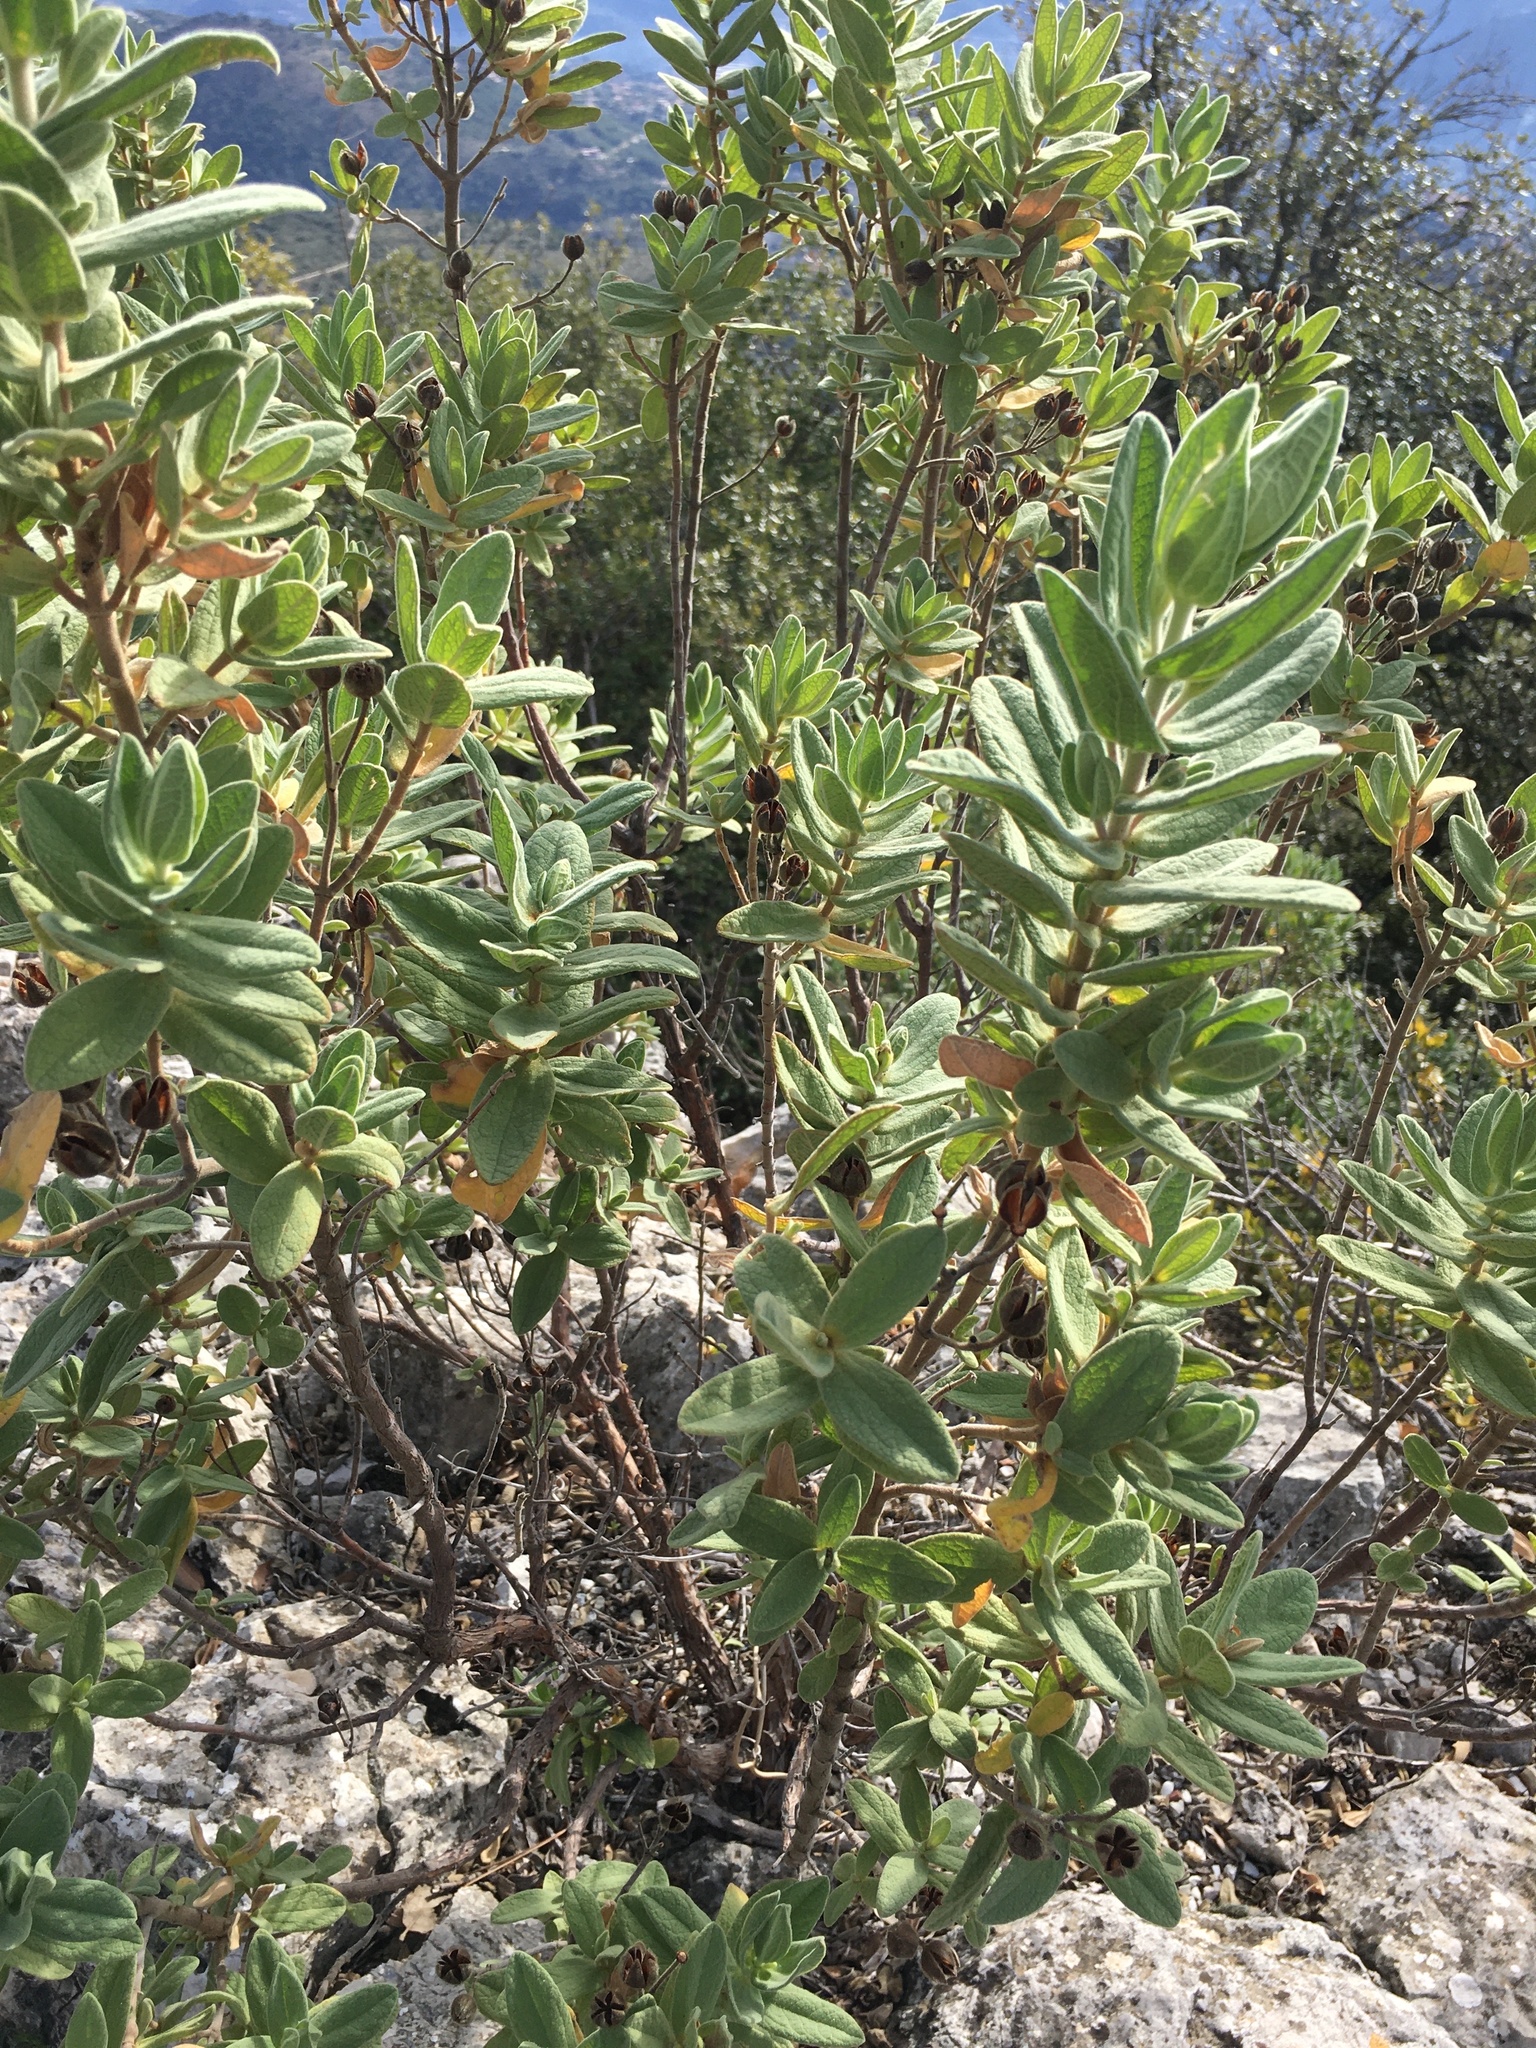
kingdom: Plantae
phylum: Tracheophyta
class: Magnoliopsida
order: Malvales
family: Cistaceae
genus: Cistus
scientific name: Cistus albidus
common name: White-leaf rock-rose
